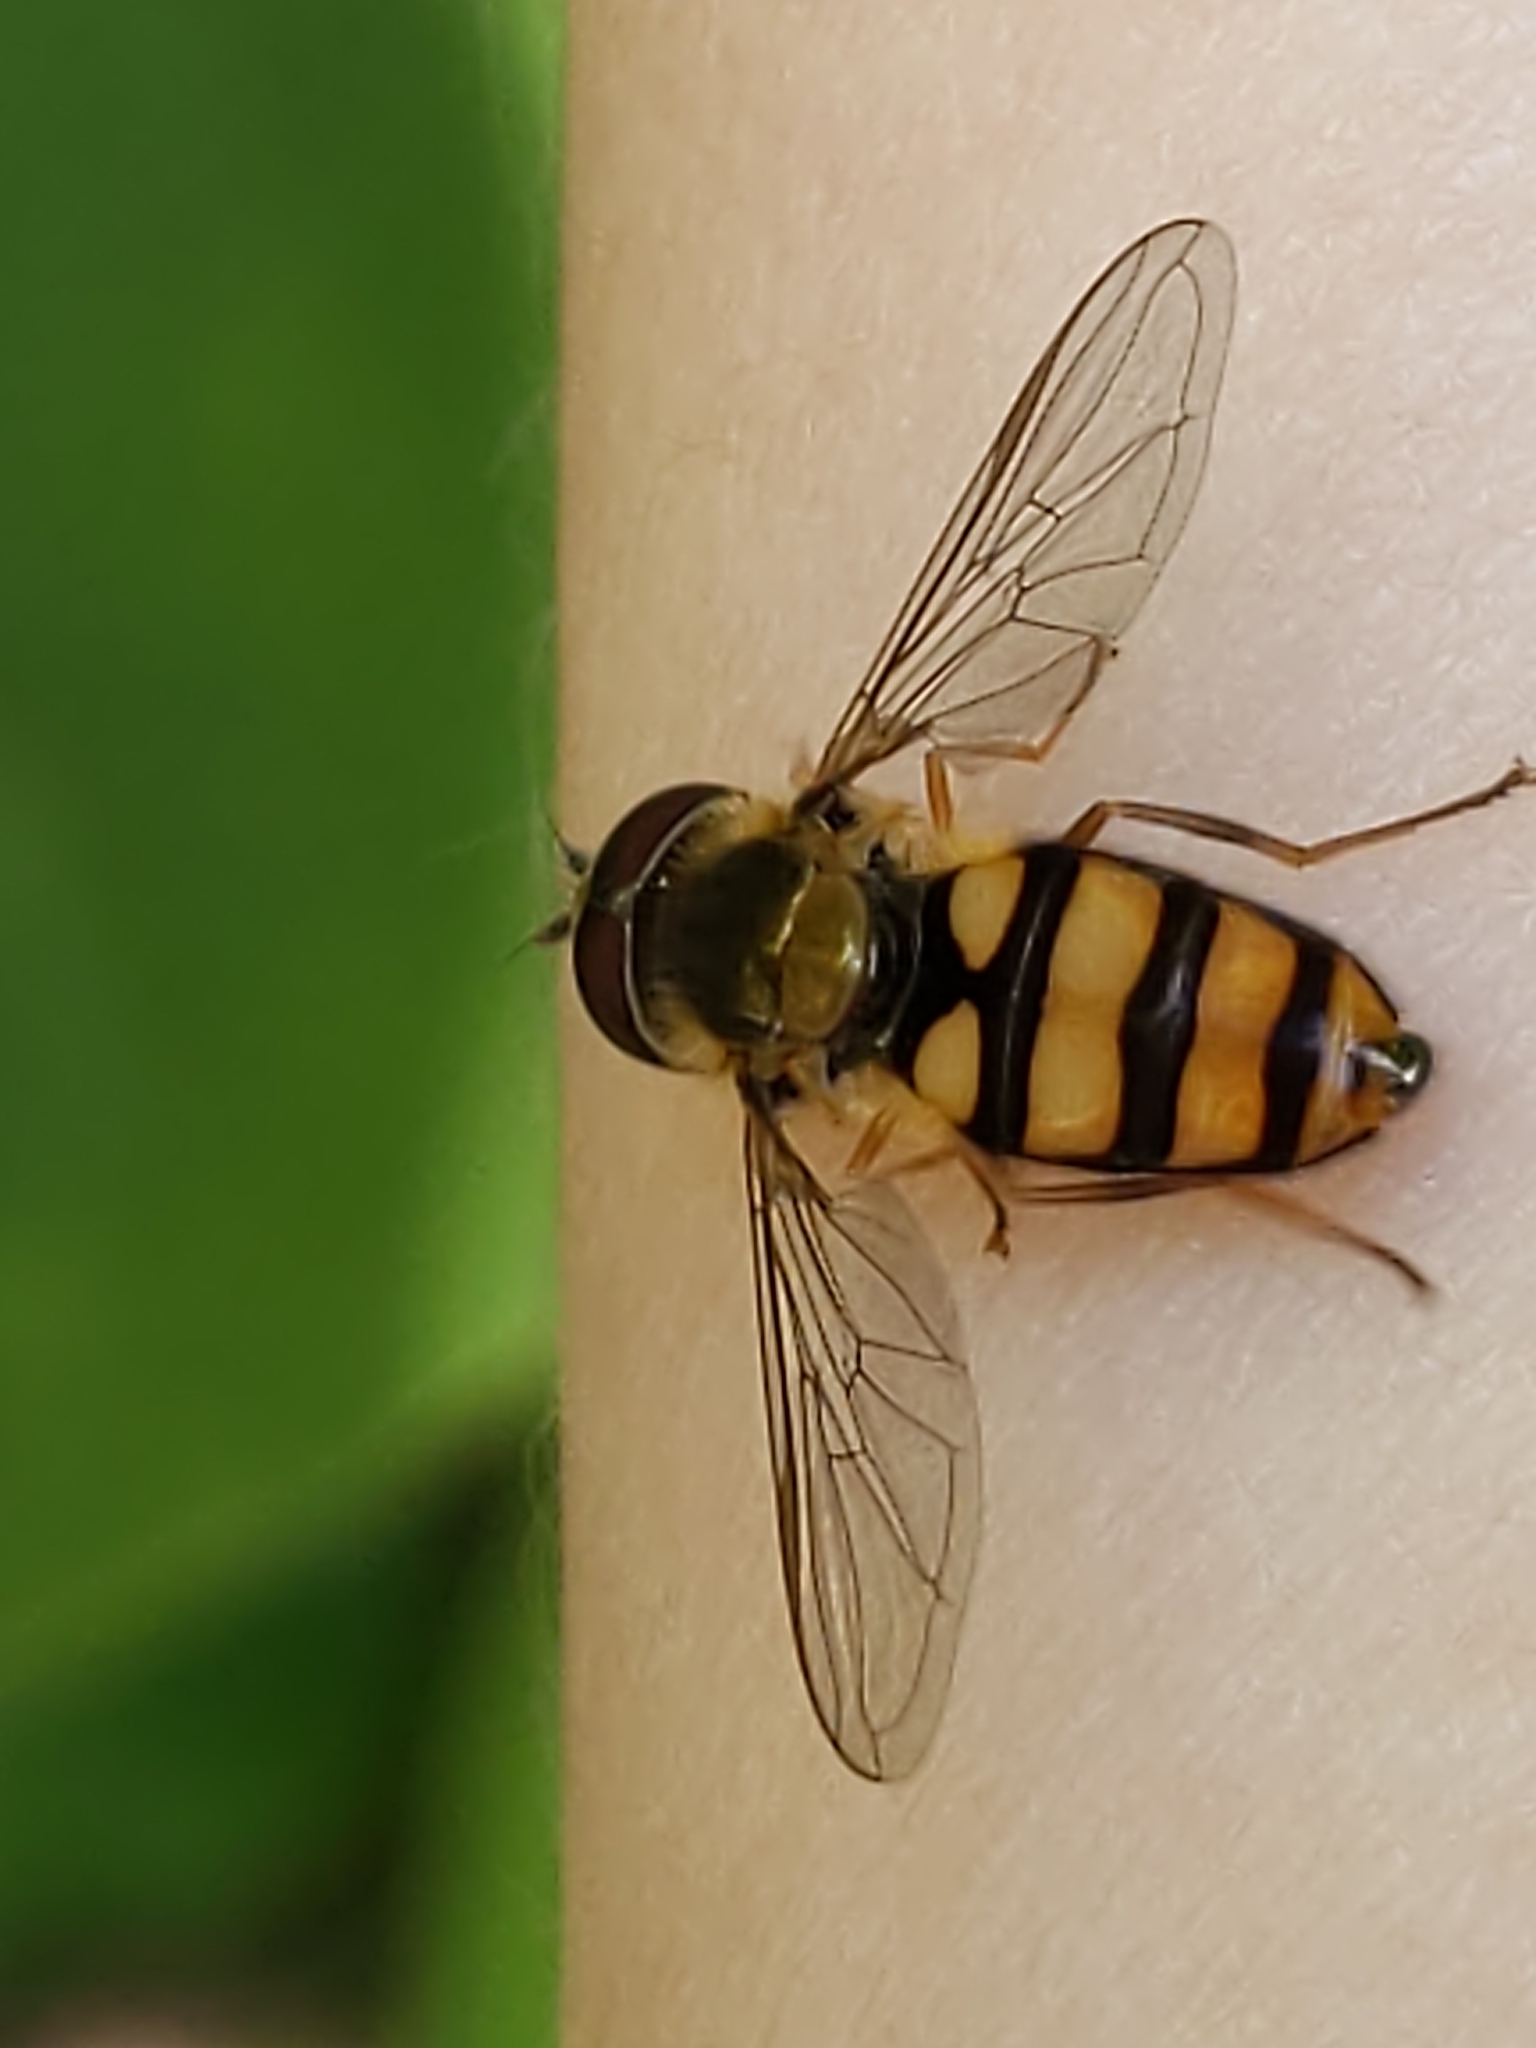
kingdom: Animalia
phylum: Arthropoda
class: Insecta
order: Diptera
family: Syrphidae
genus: Eupeodes
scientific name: Eupeodes
